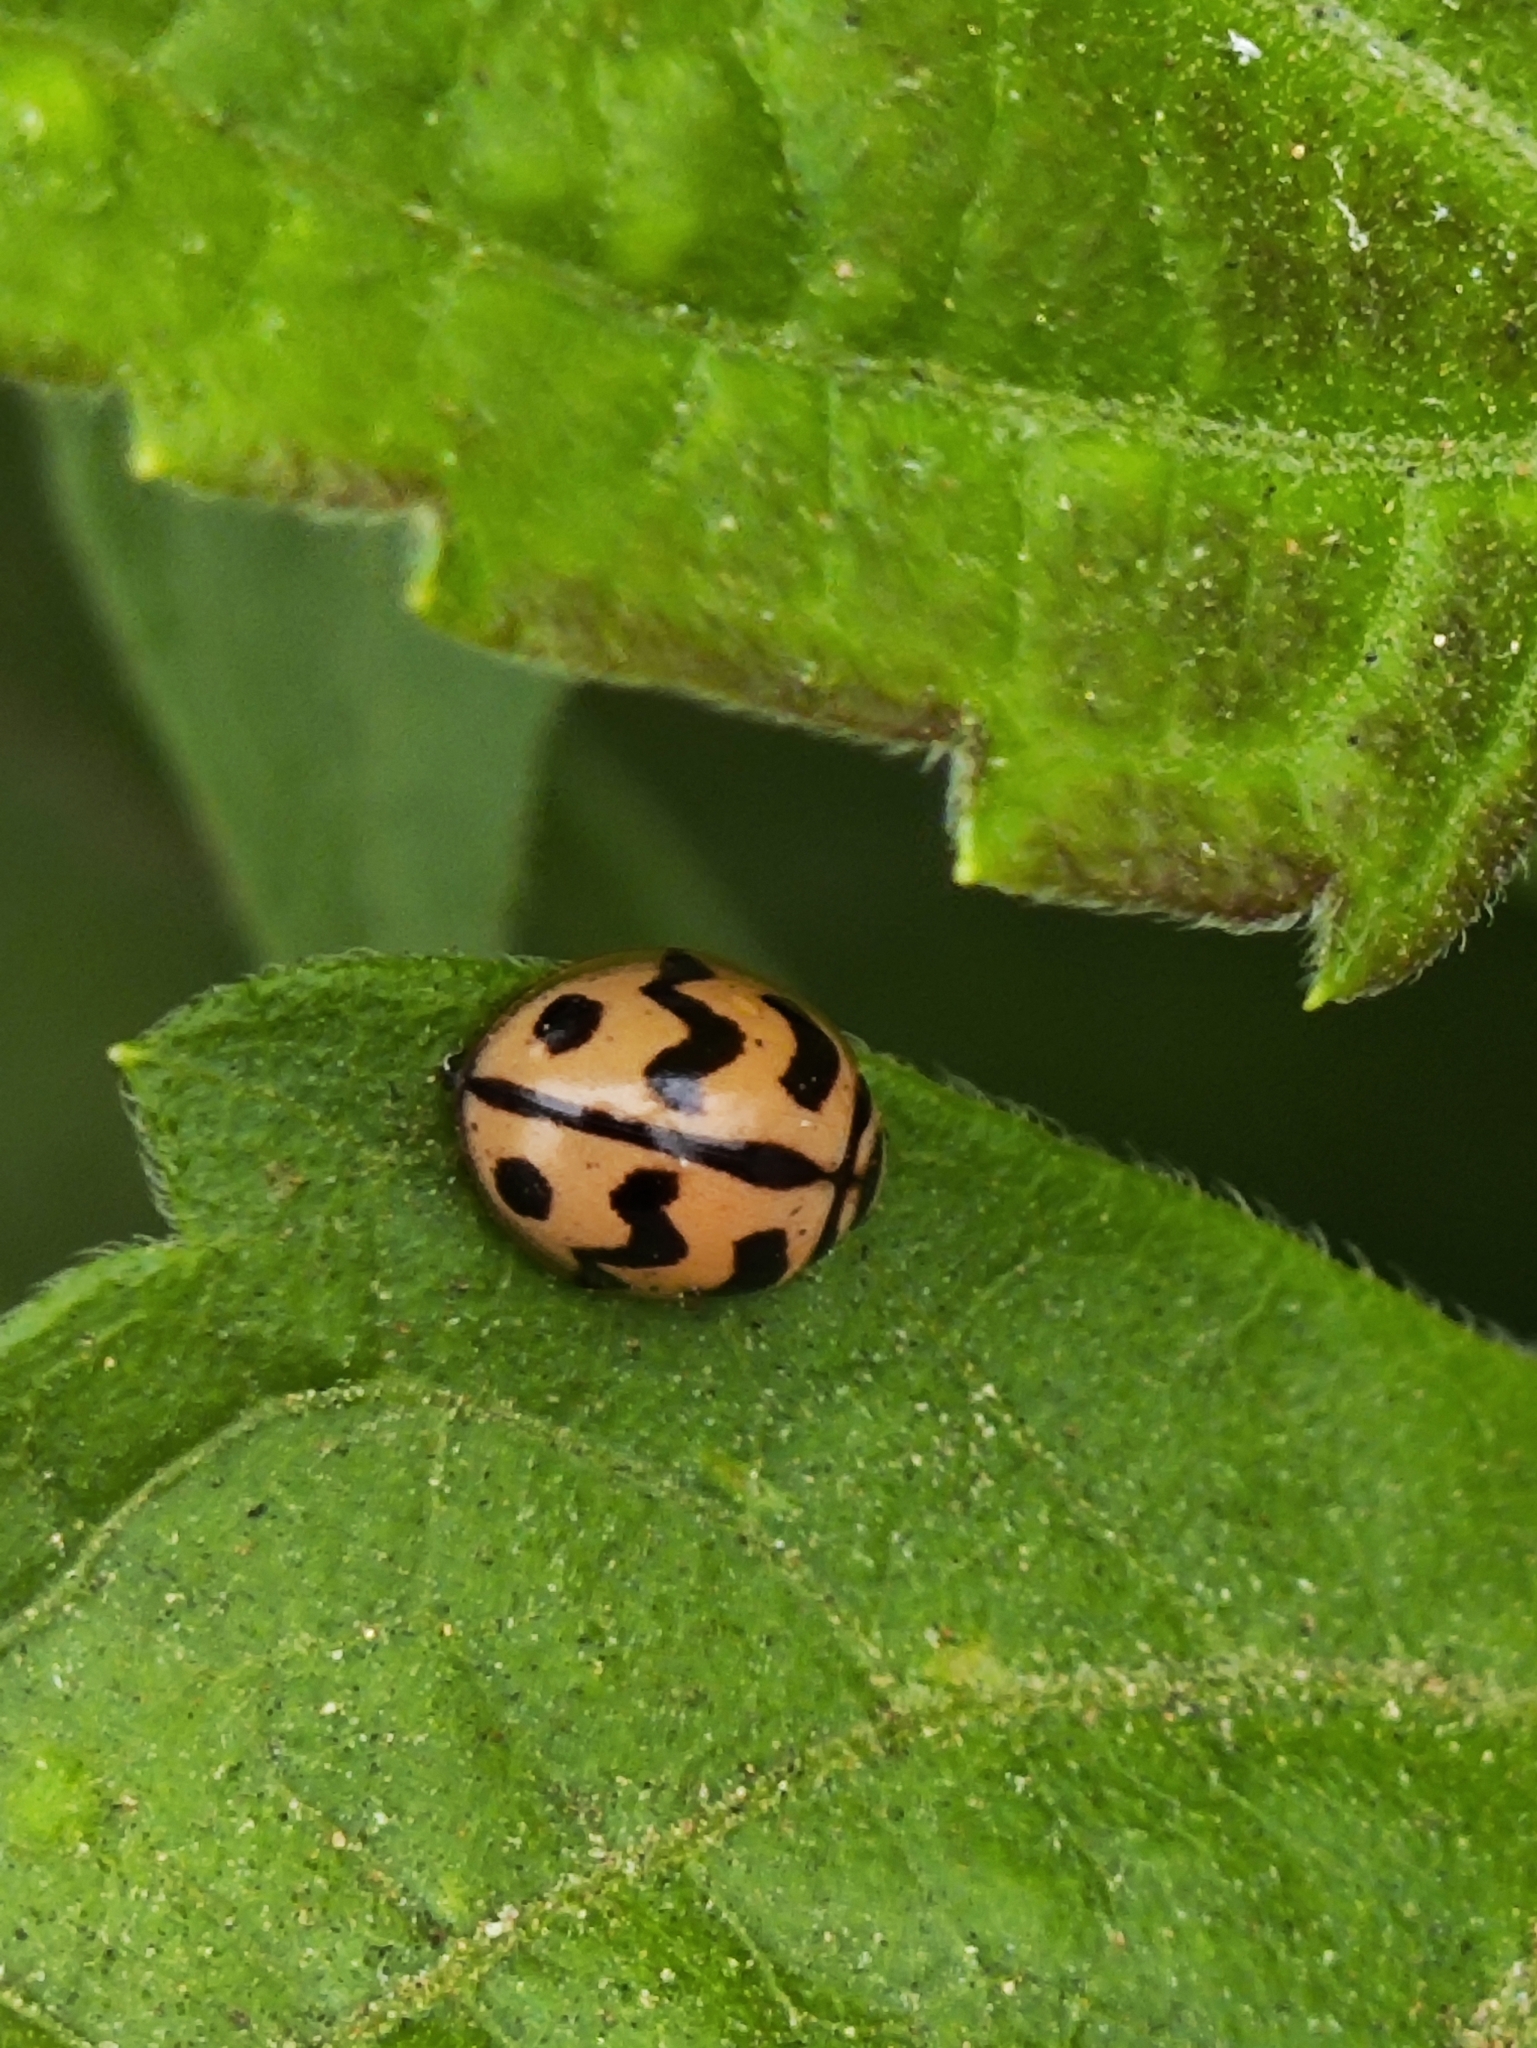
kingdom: Animalia
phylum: Arthropoda
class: Insecta
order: Coleoptera
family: Coccinellidae
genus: Cheilomenes
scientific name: Cheilomenes sexmaculata
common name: Ladybird beetle
